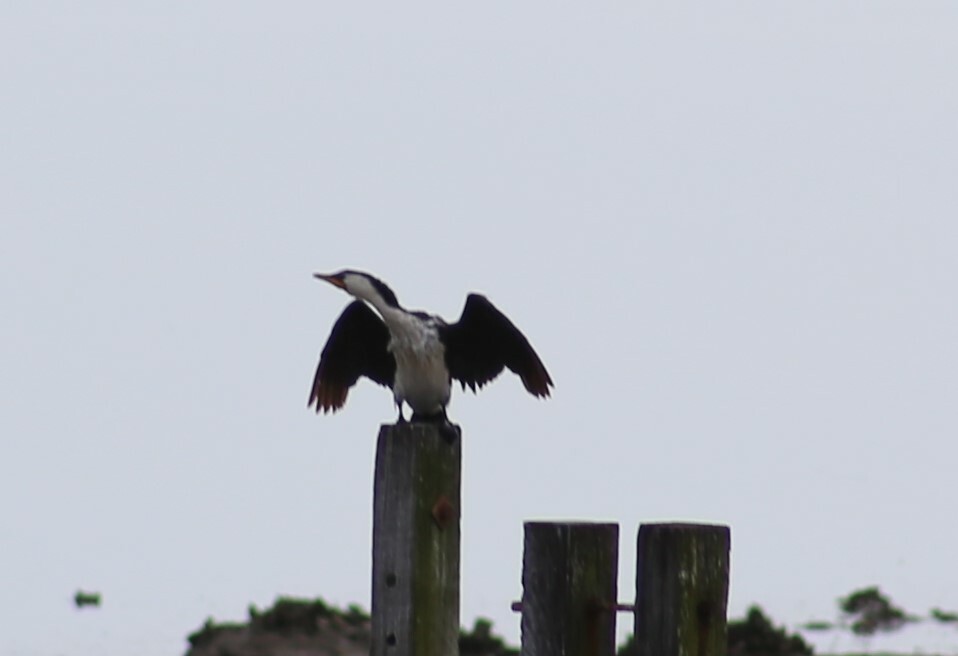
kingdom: Animalia
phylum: Chordata
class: Aves
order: Suliformes
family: Phalacrocoracidae
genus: Microcarbo
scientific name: Microcarbo melanoleucos
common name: Little pied cormorant
